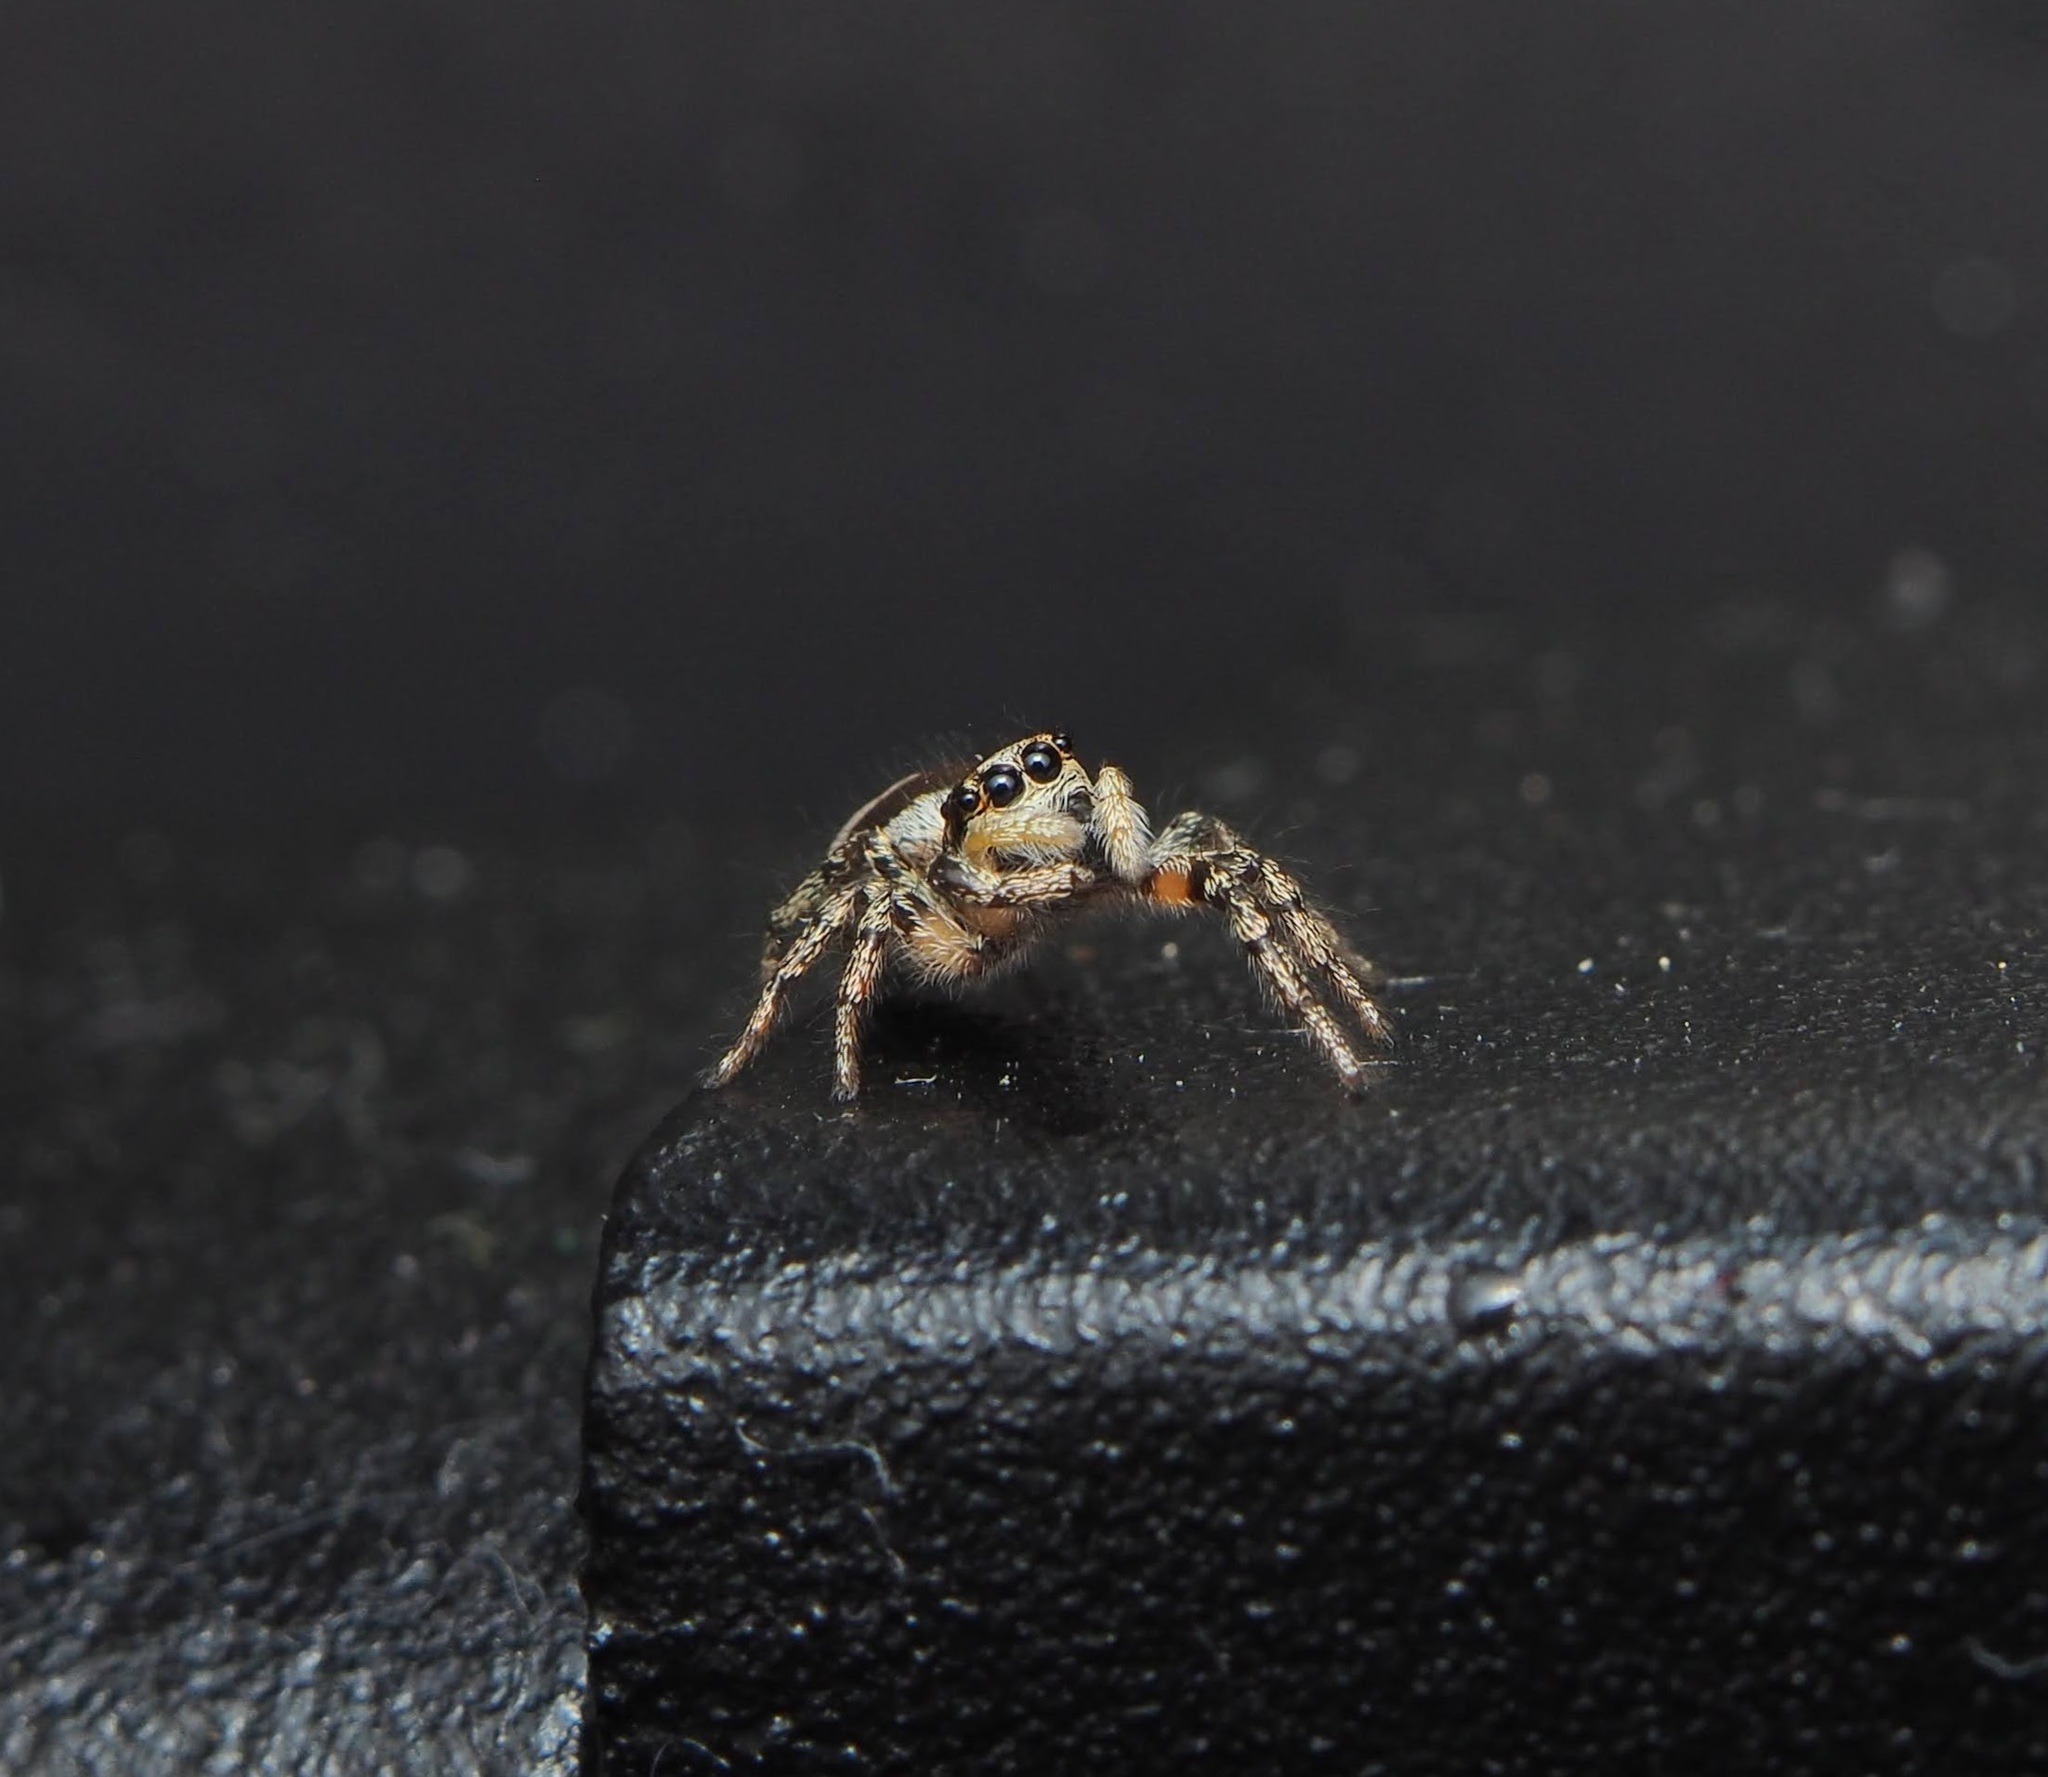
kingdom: Animalia
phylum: Arthropoda
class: Arachnida
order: Araneae
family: Salticidae
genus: Salticus
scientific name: Salticus scenicus
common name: Zebra jumper
